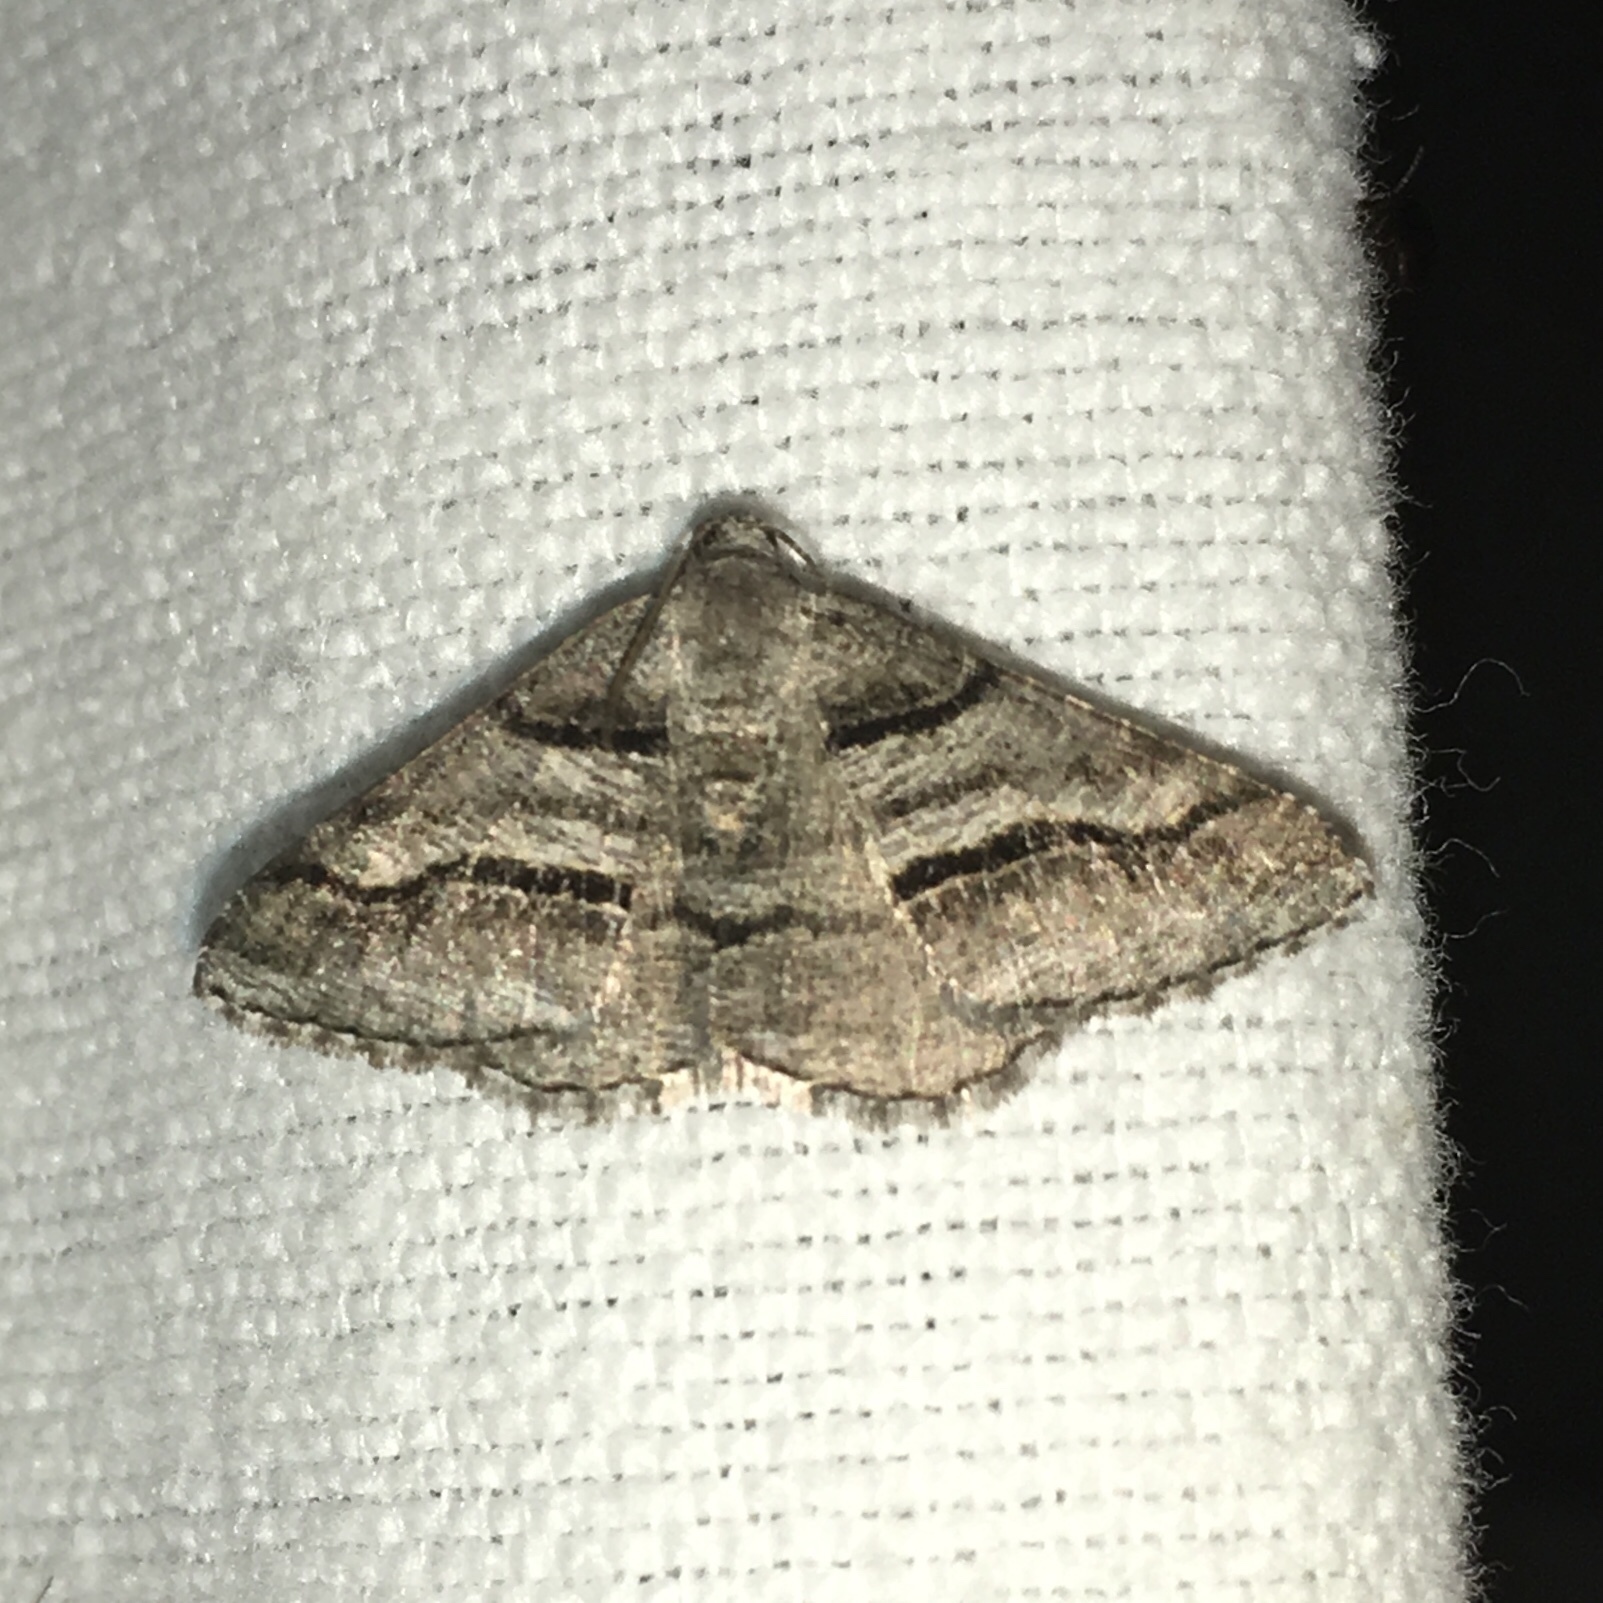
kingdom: Animalia
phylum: Arthropoda
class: Insecta
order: Lepidoptera
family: Geometridae
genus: Digrammia
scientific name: Digrammia continuata
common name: Curve-lined angle
